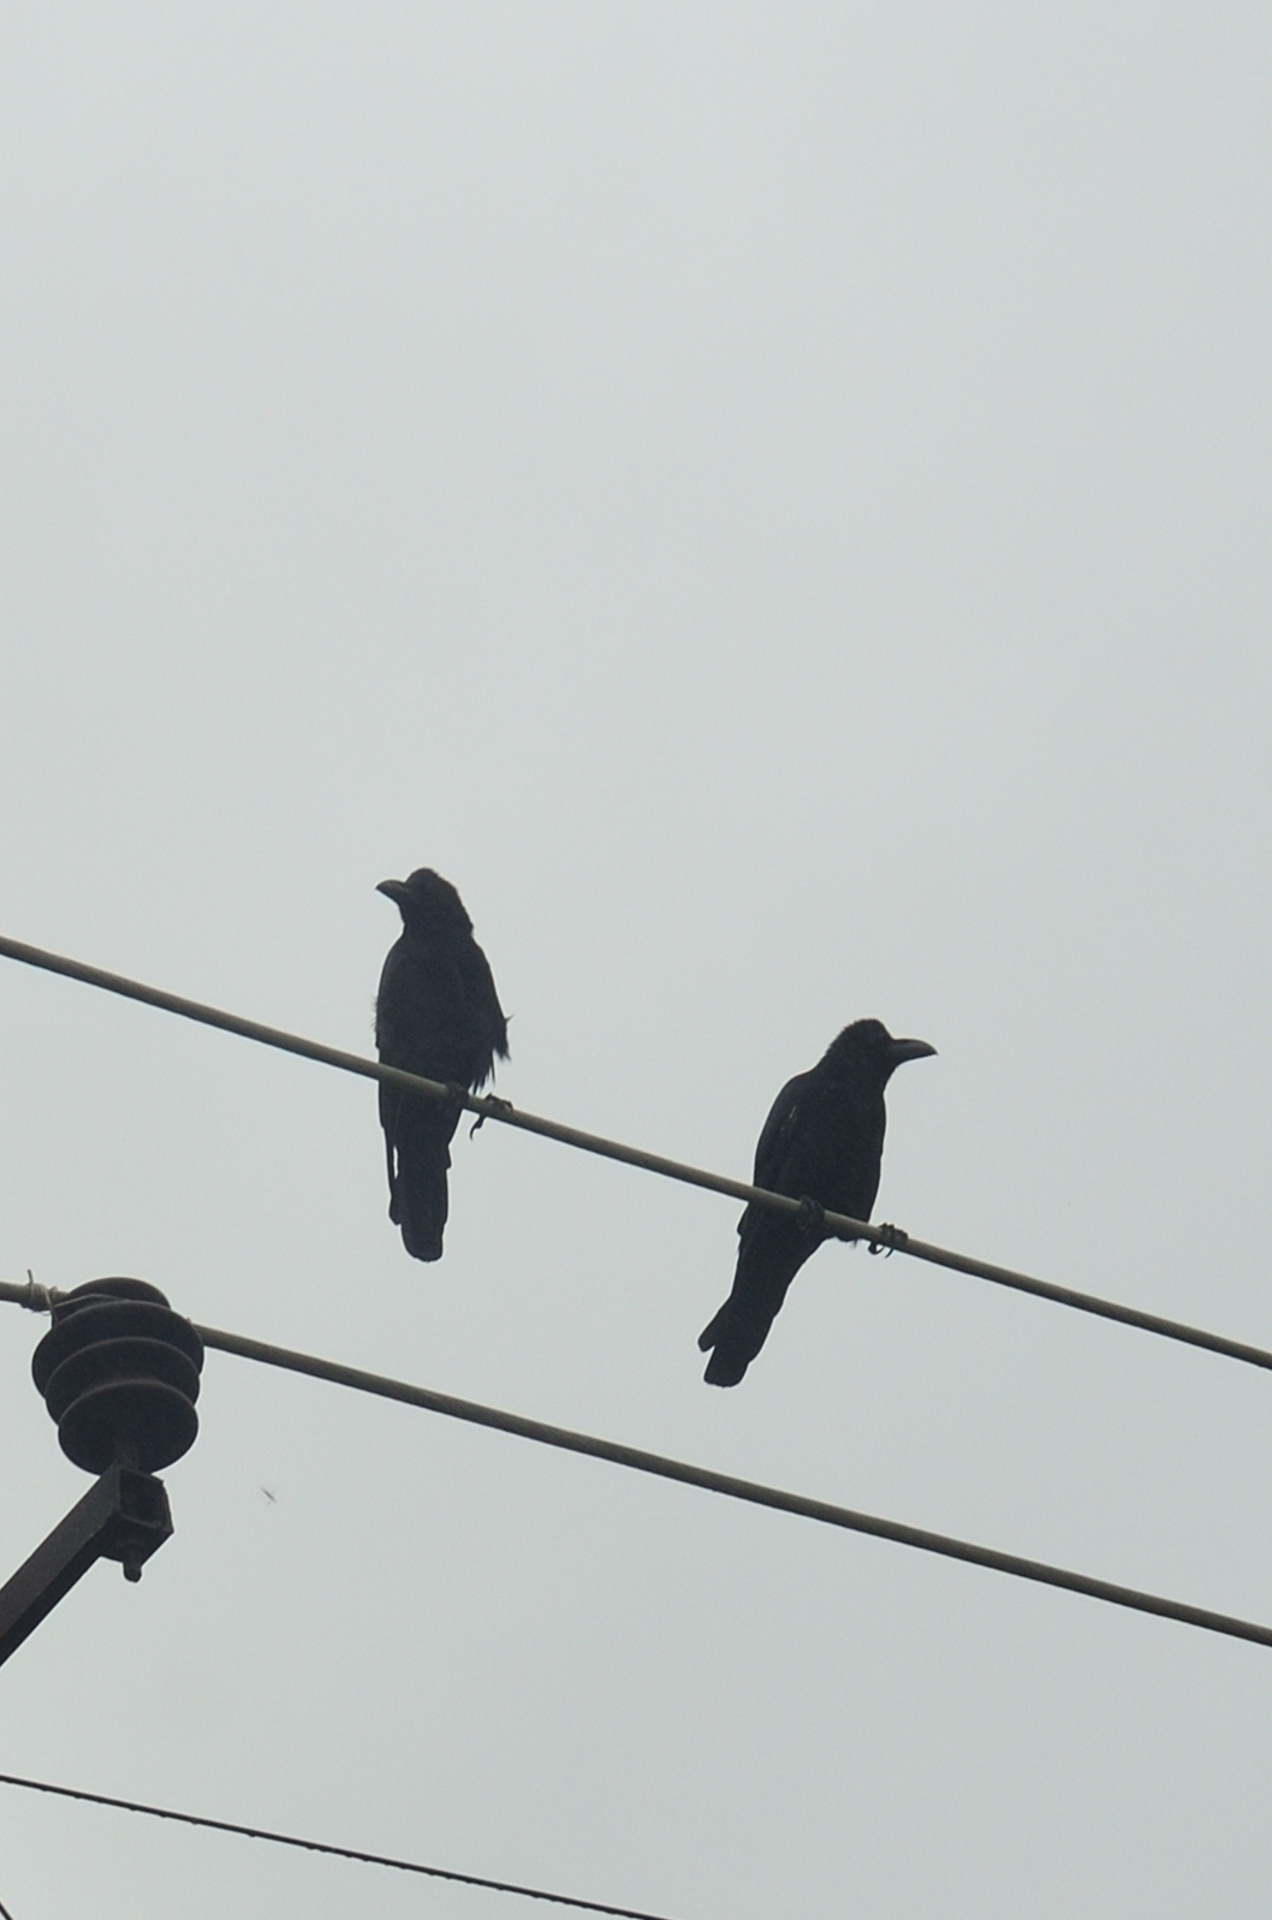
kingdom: Animalia
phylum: Chordata
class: Aves
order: Passeriformes
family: Corvidae
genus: Corvus
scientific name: Corvus macrorhynchos
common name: Large-billed crow
